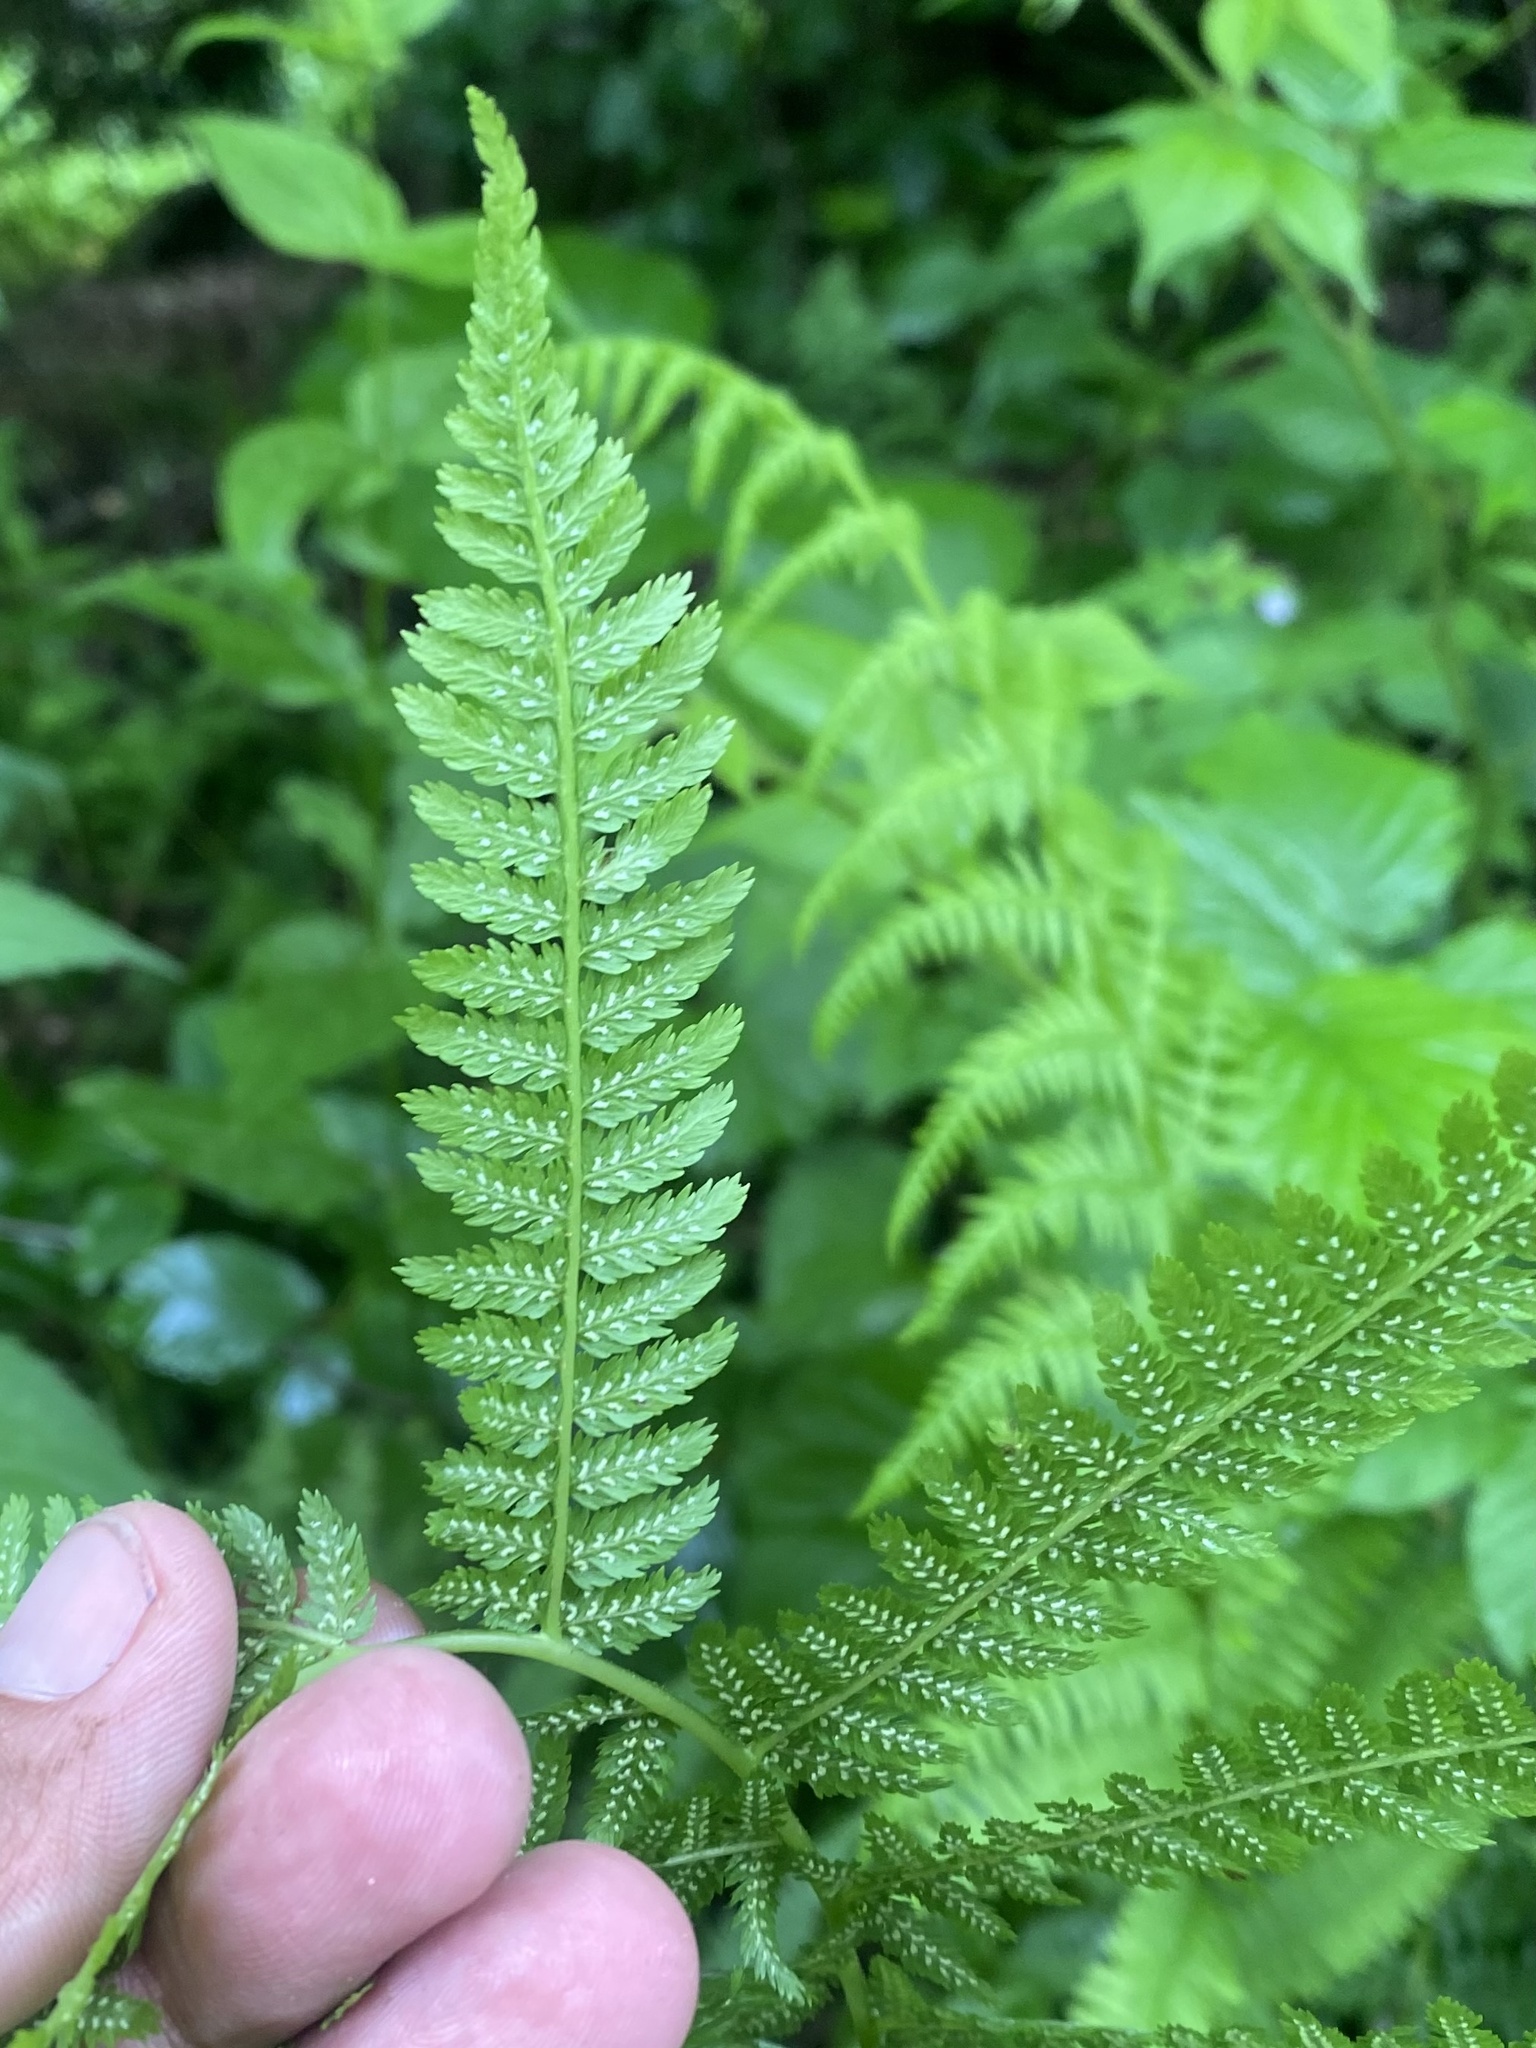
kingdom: Plantae
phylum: Tracheophyta
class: Polypodiopsida
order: Polypodiales
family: Athyriaceae
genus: Athyrium
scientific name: Athyrium filix-femina
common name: Lady fern
